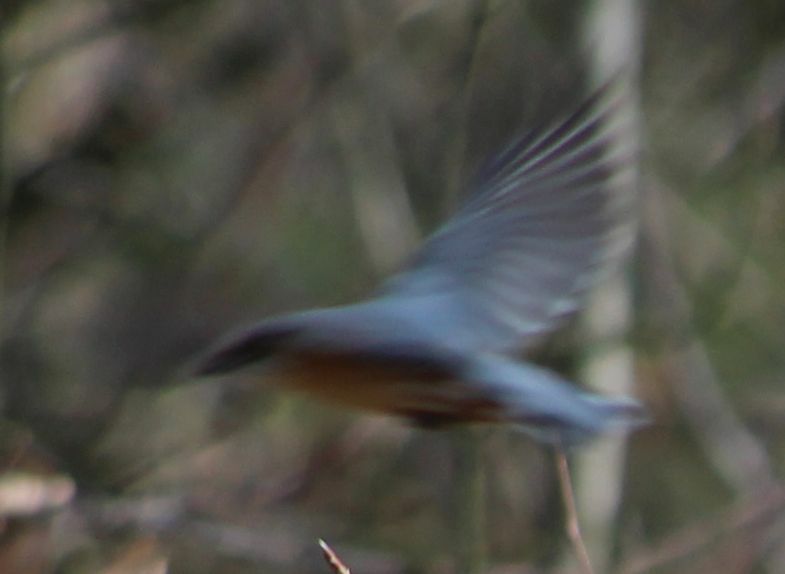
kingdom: Animalia
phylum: Chordata
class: Aves
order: Passeriformes
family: Sittidae
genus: Sitta
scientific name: Sitta europaea
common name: Eurasian nuthatch
